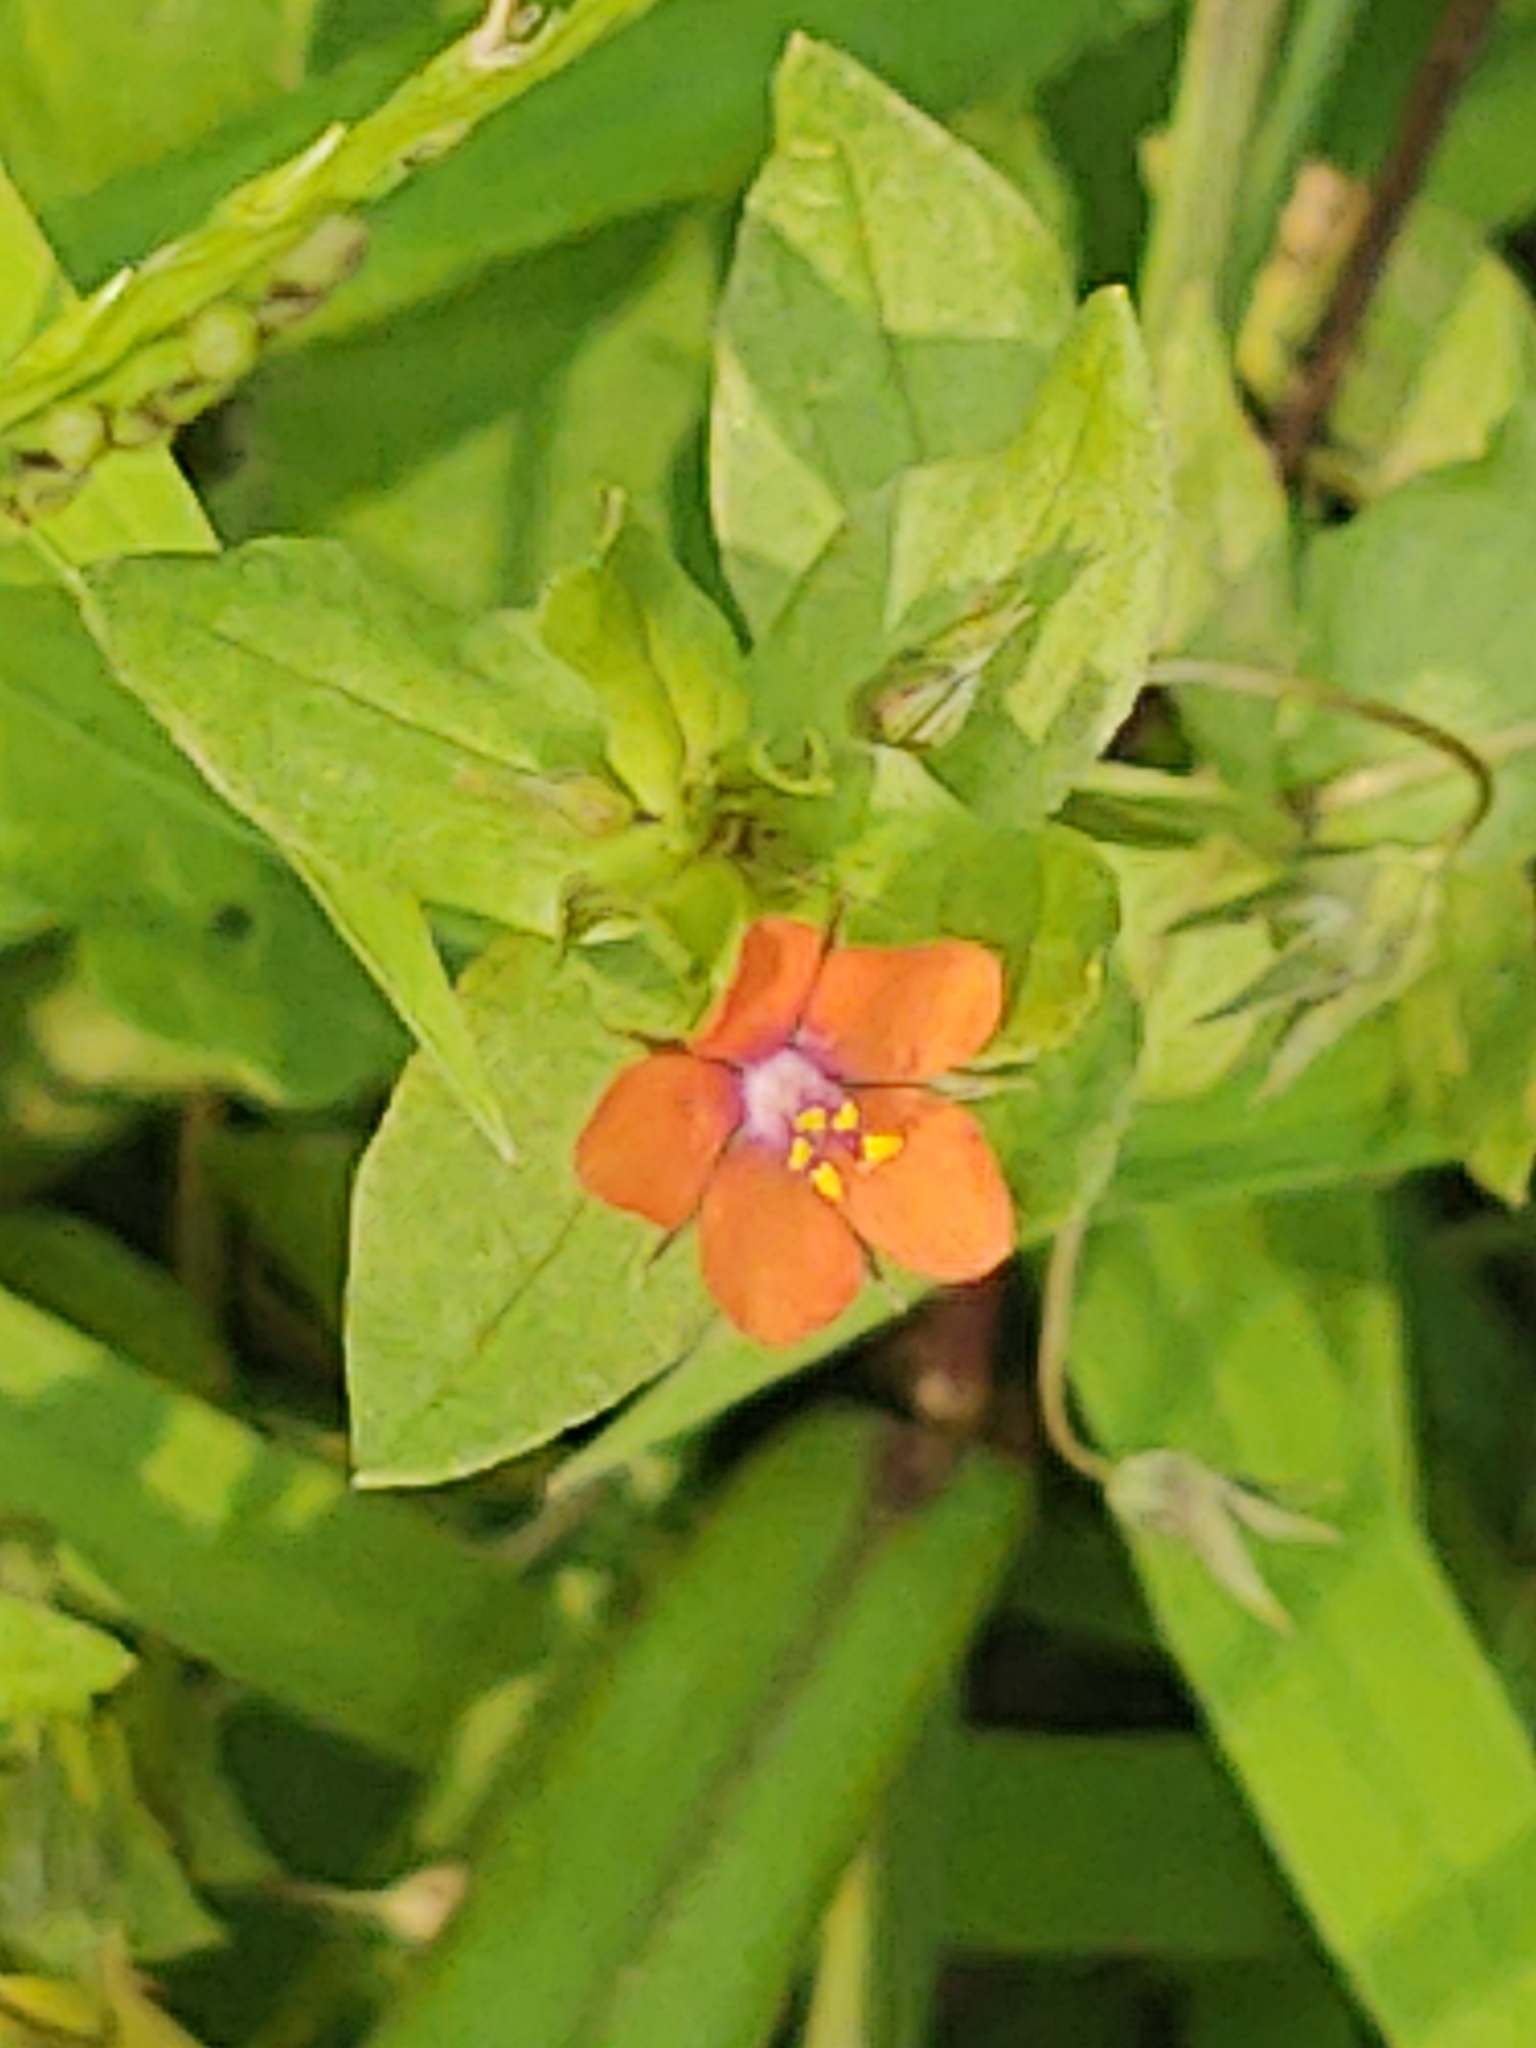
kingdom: Plantae
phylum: Tracheophyta
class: Magnoliopsida
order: Ericales
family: Primulaceae
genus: Lysimachia
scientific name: Lysimachia arvensis
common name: Scarlet pimpernel
